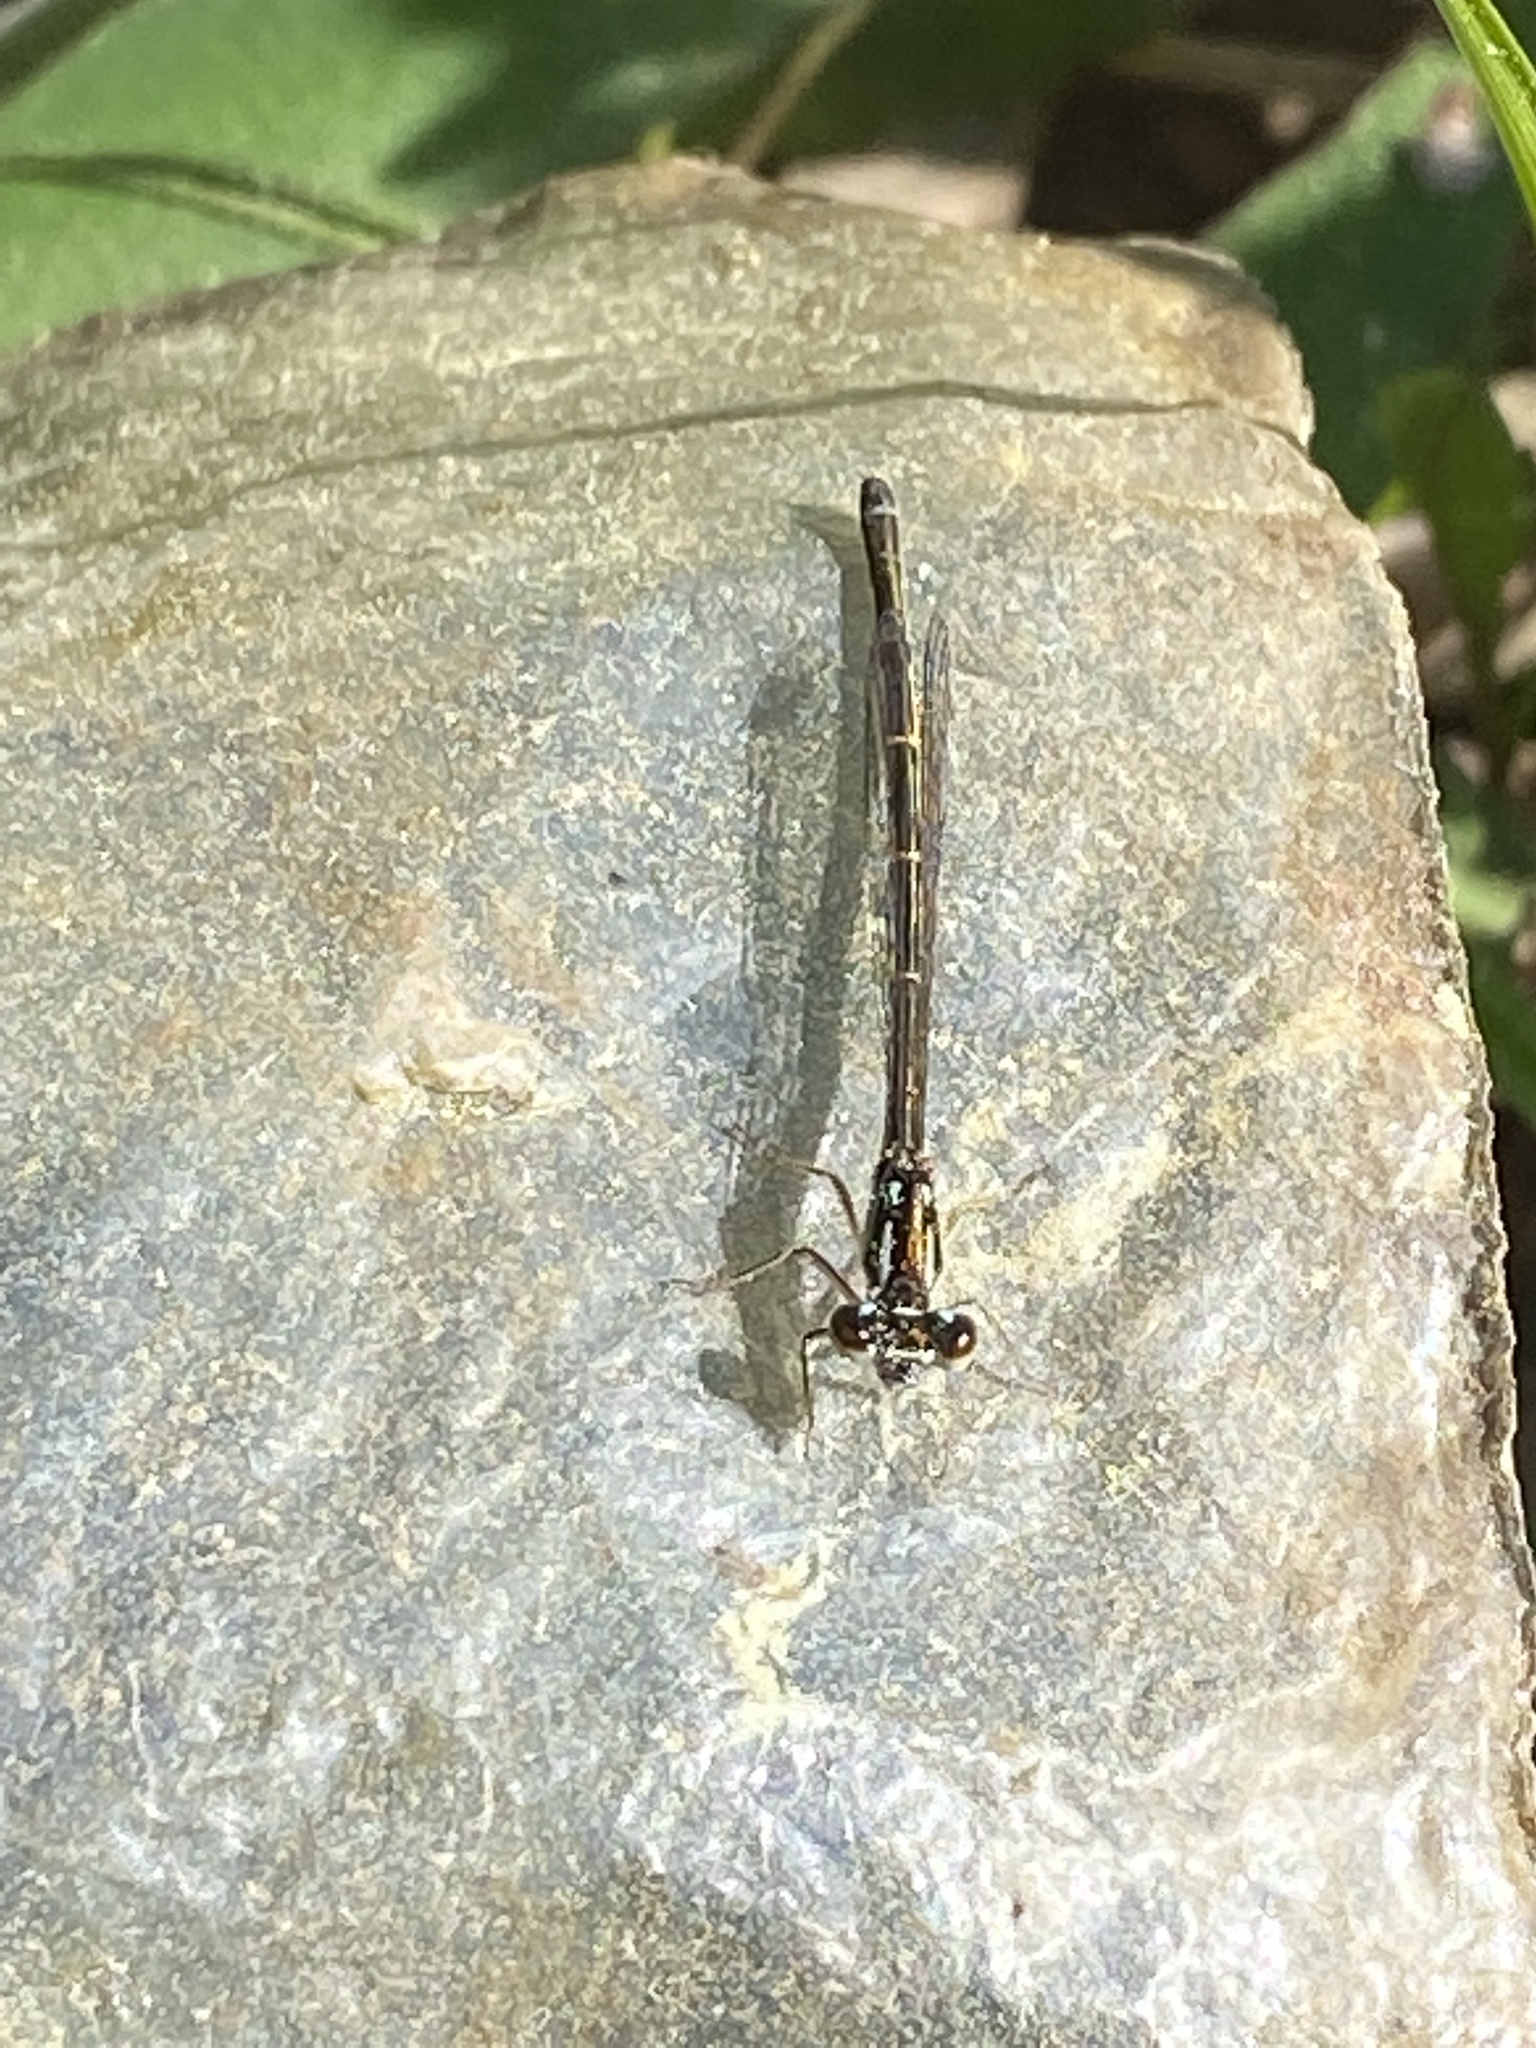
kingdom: Animalia
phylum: Arthropoda
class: Insecta
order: Odonata
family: Coenagrionidae
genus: Ischnura
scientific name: Ischnura posita
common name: Fragile forktail
